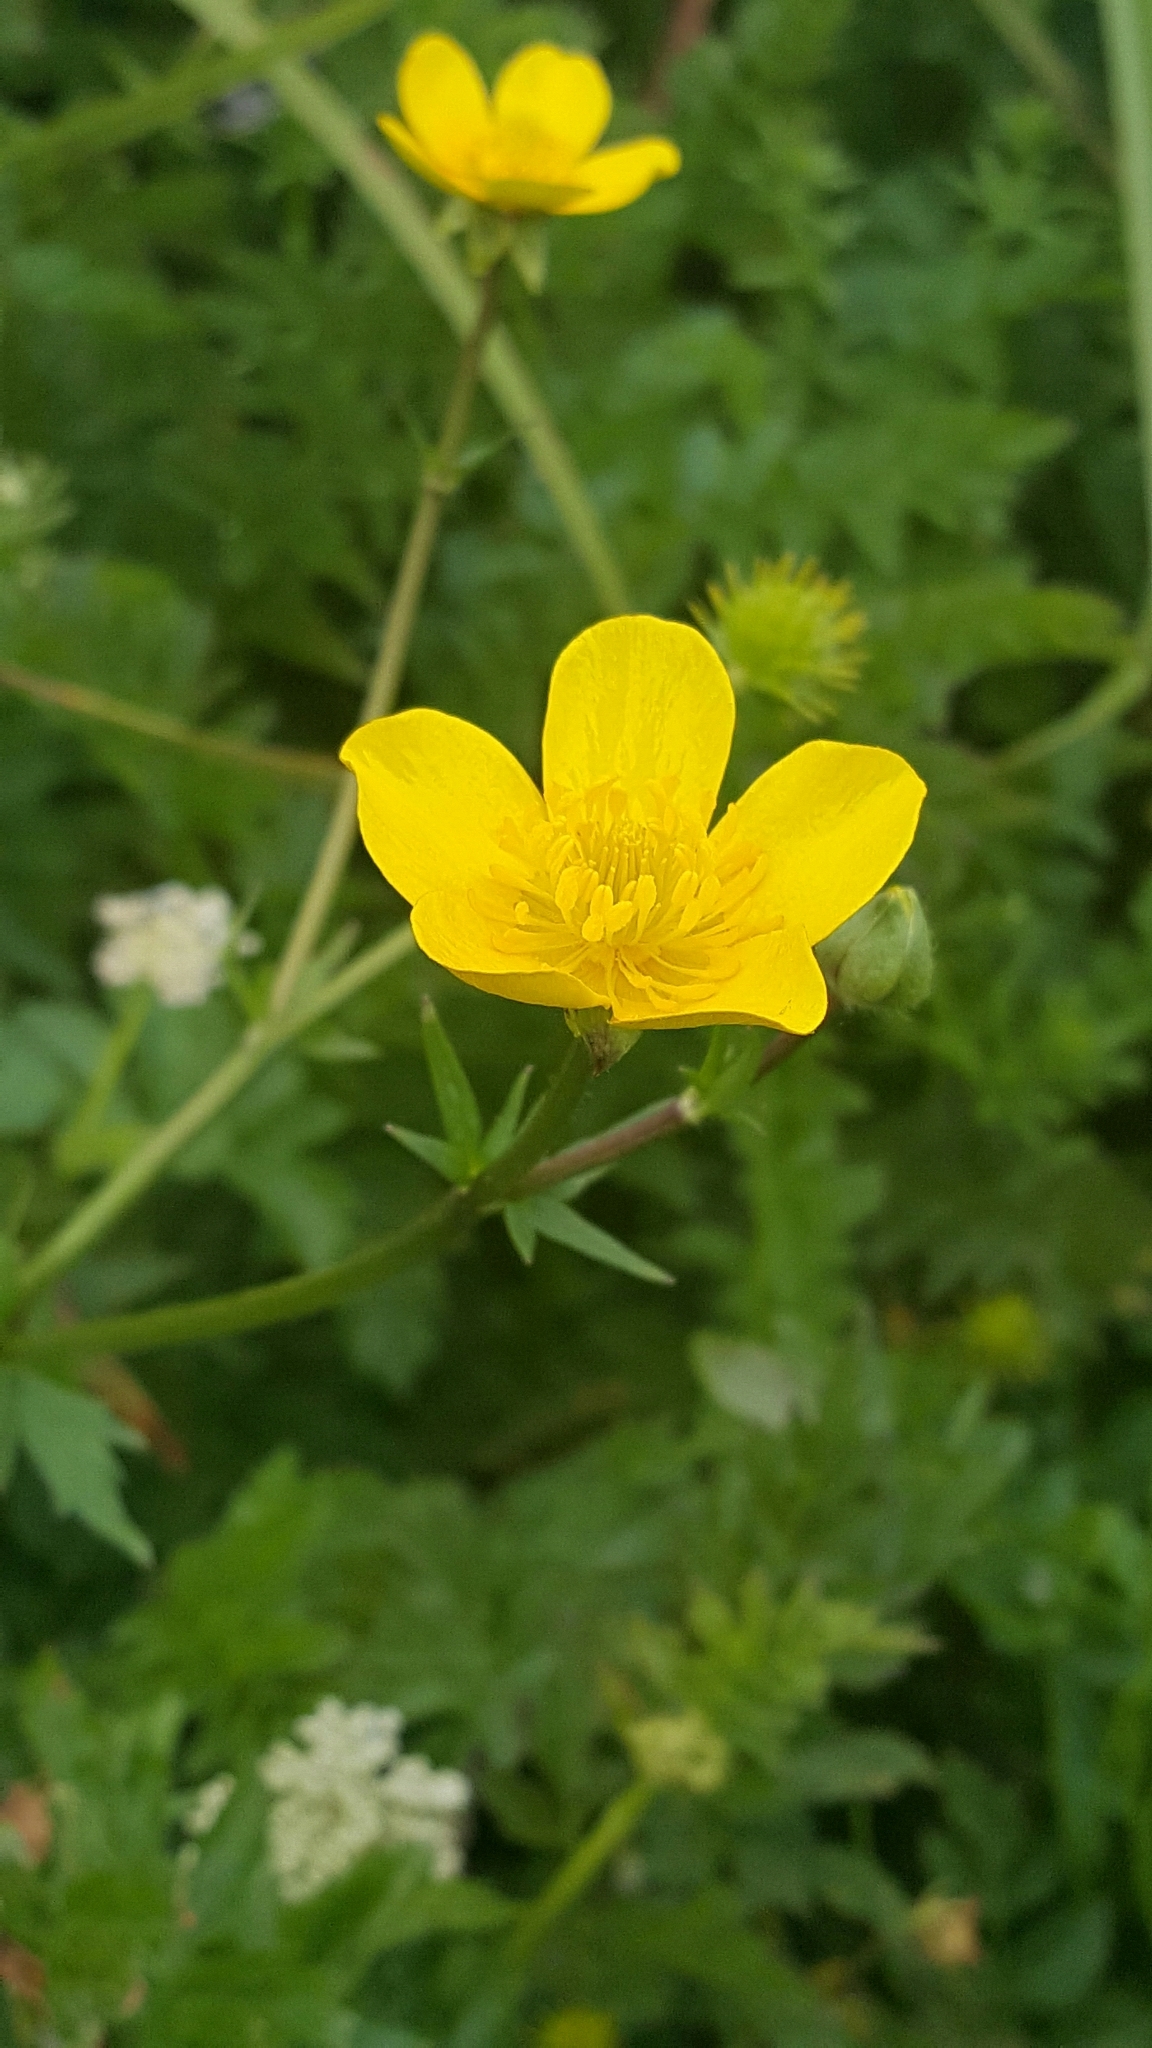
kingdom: Plantae
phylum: Tracheophyta
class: Magnoliopsida
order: Ranunculales
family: Ranunculaceae
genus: Ranunculus
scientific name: Ranunculus orthorhynchus
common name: Straight-beak buttercup
